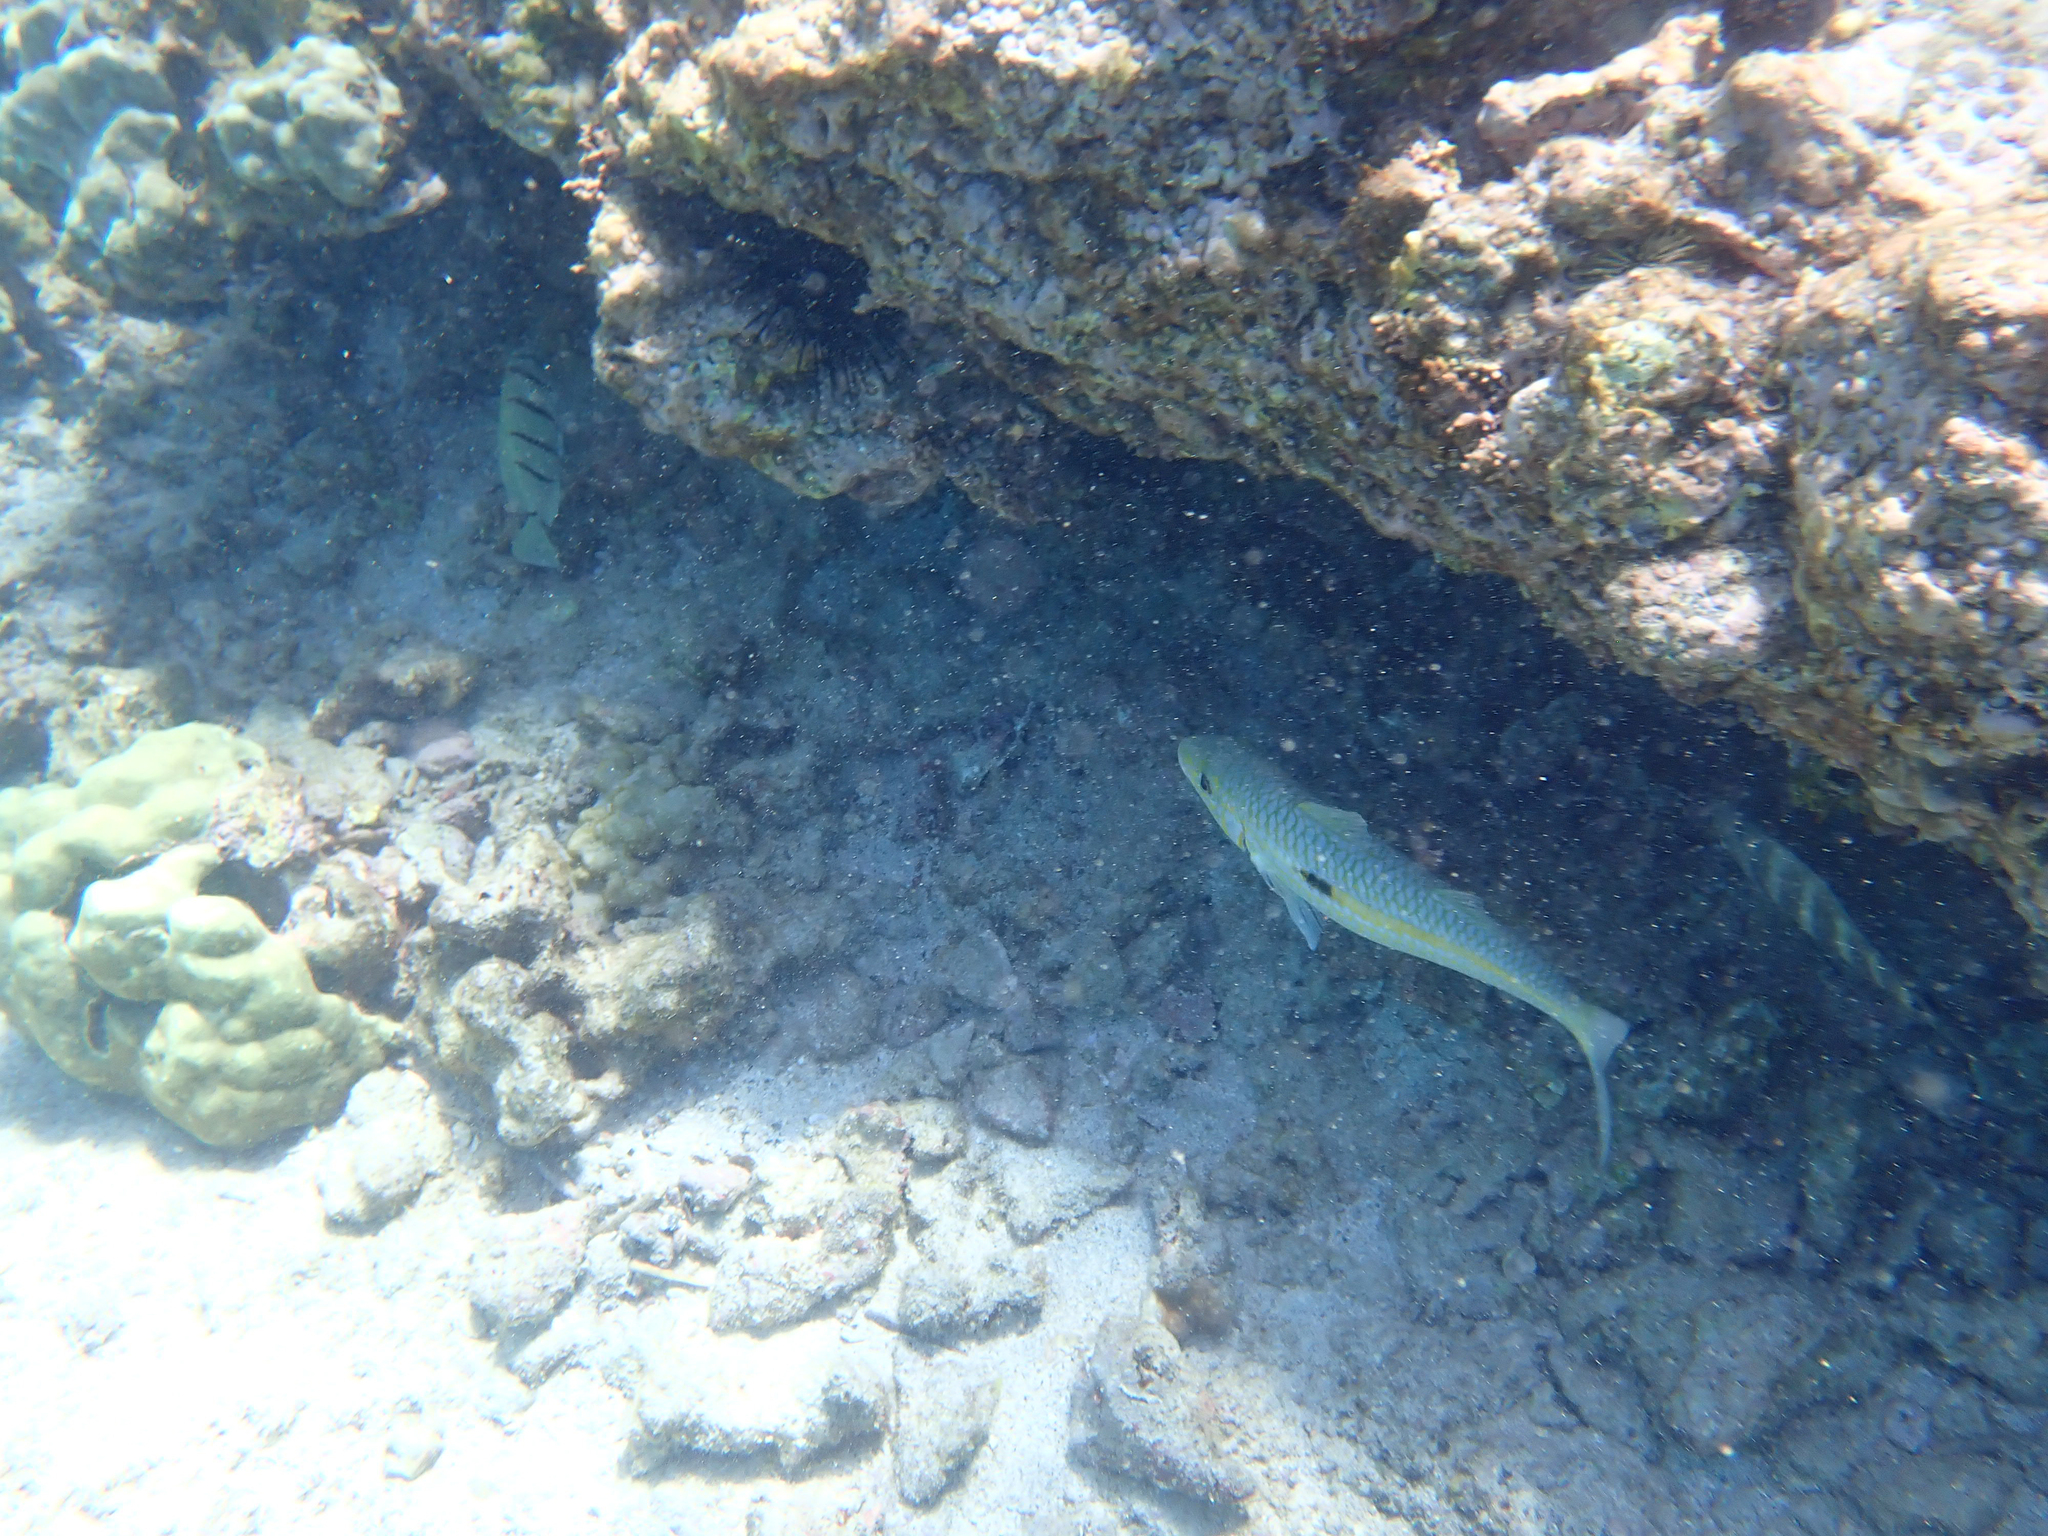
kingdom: Animalia
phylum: Chordata
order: Perciformes
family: Mullidae
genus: Mulloidichthys
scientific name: Mulloidichthys flavolineatus
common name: Yellowstripe goatfish
